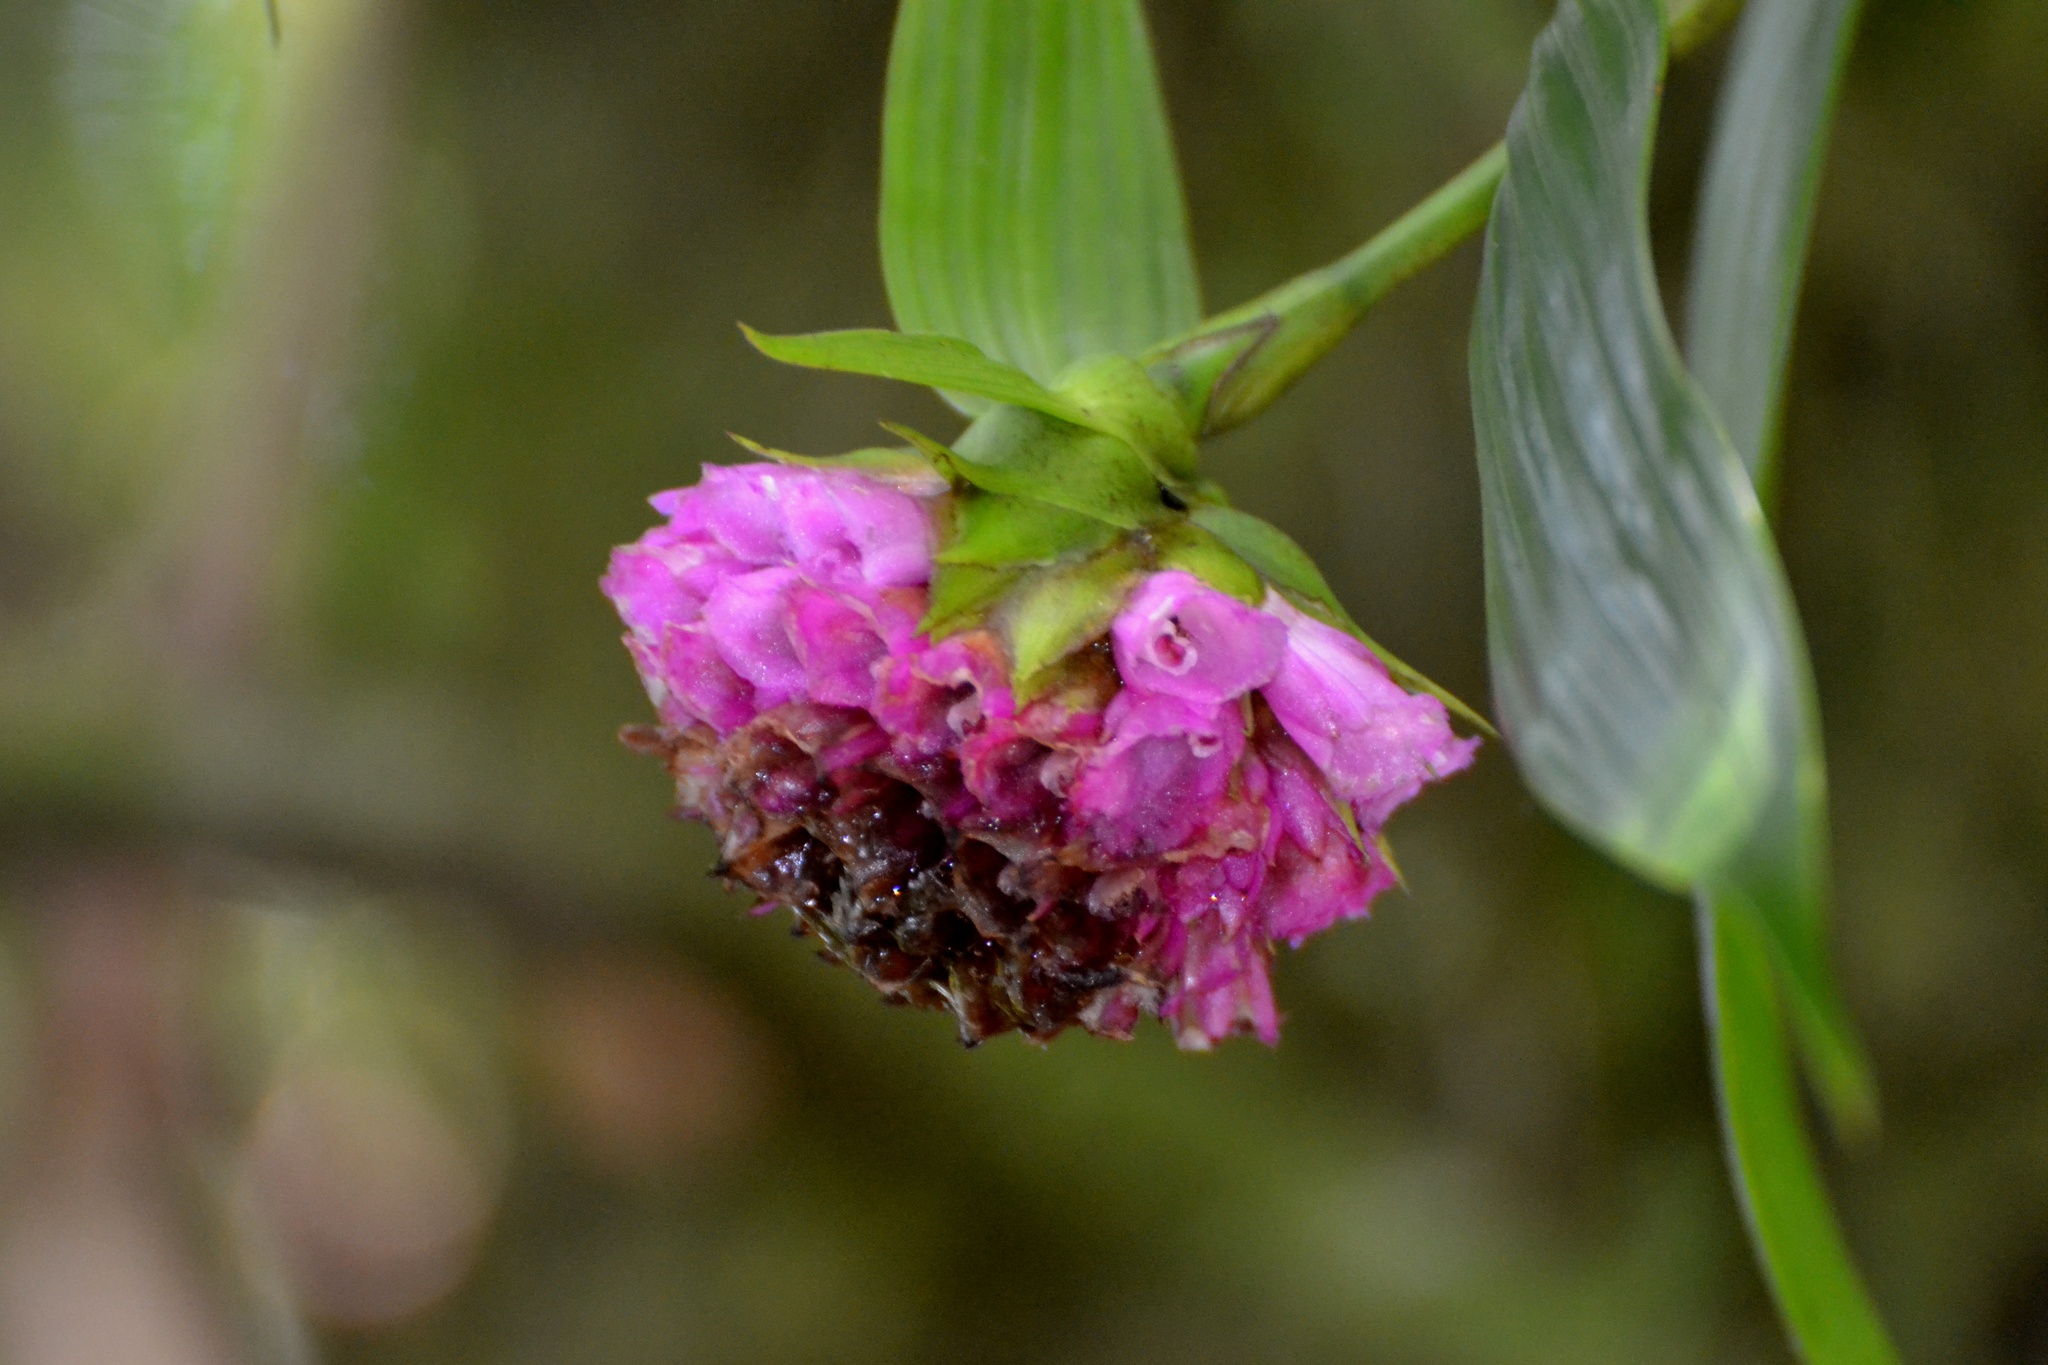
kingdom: Plantae
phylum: Tracheophyta
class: Liliopsida
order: Asparagales
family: Orchidaceae
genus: Elleanthus
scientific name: Elleanthus capitatus
